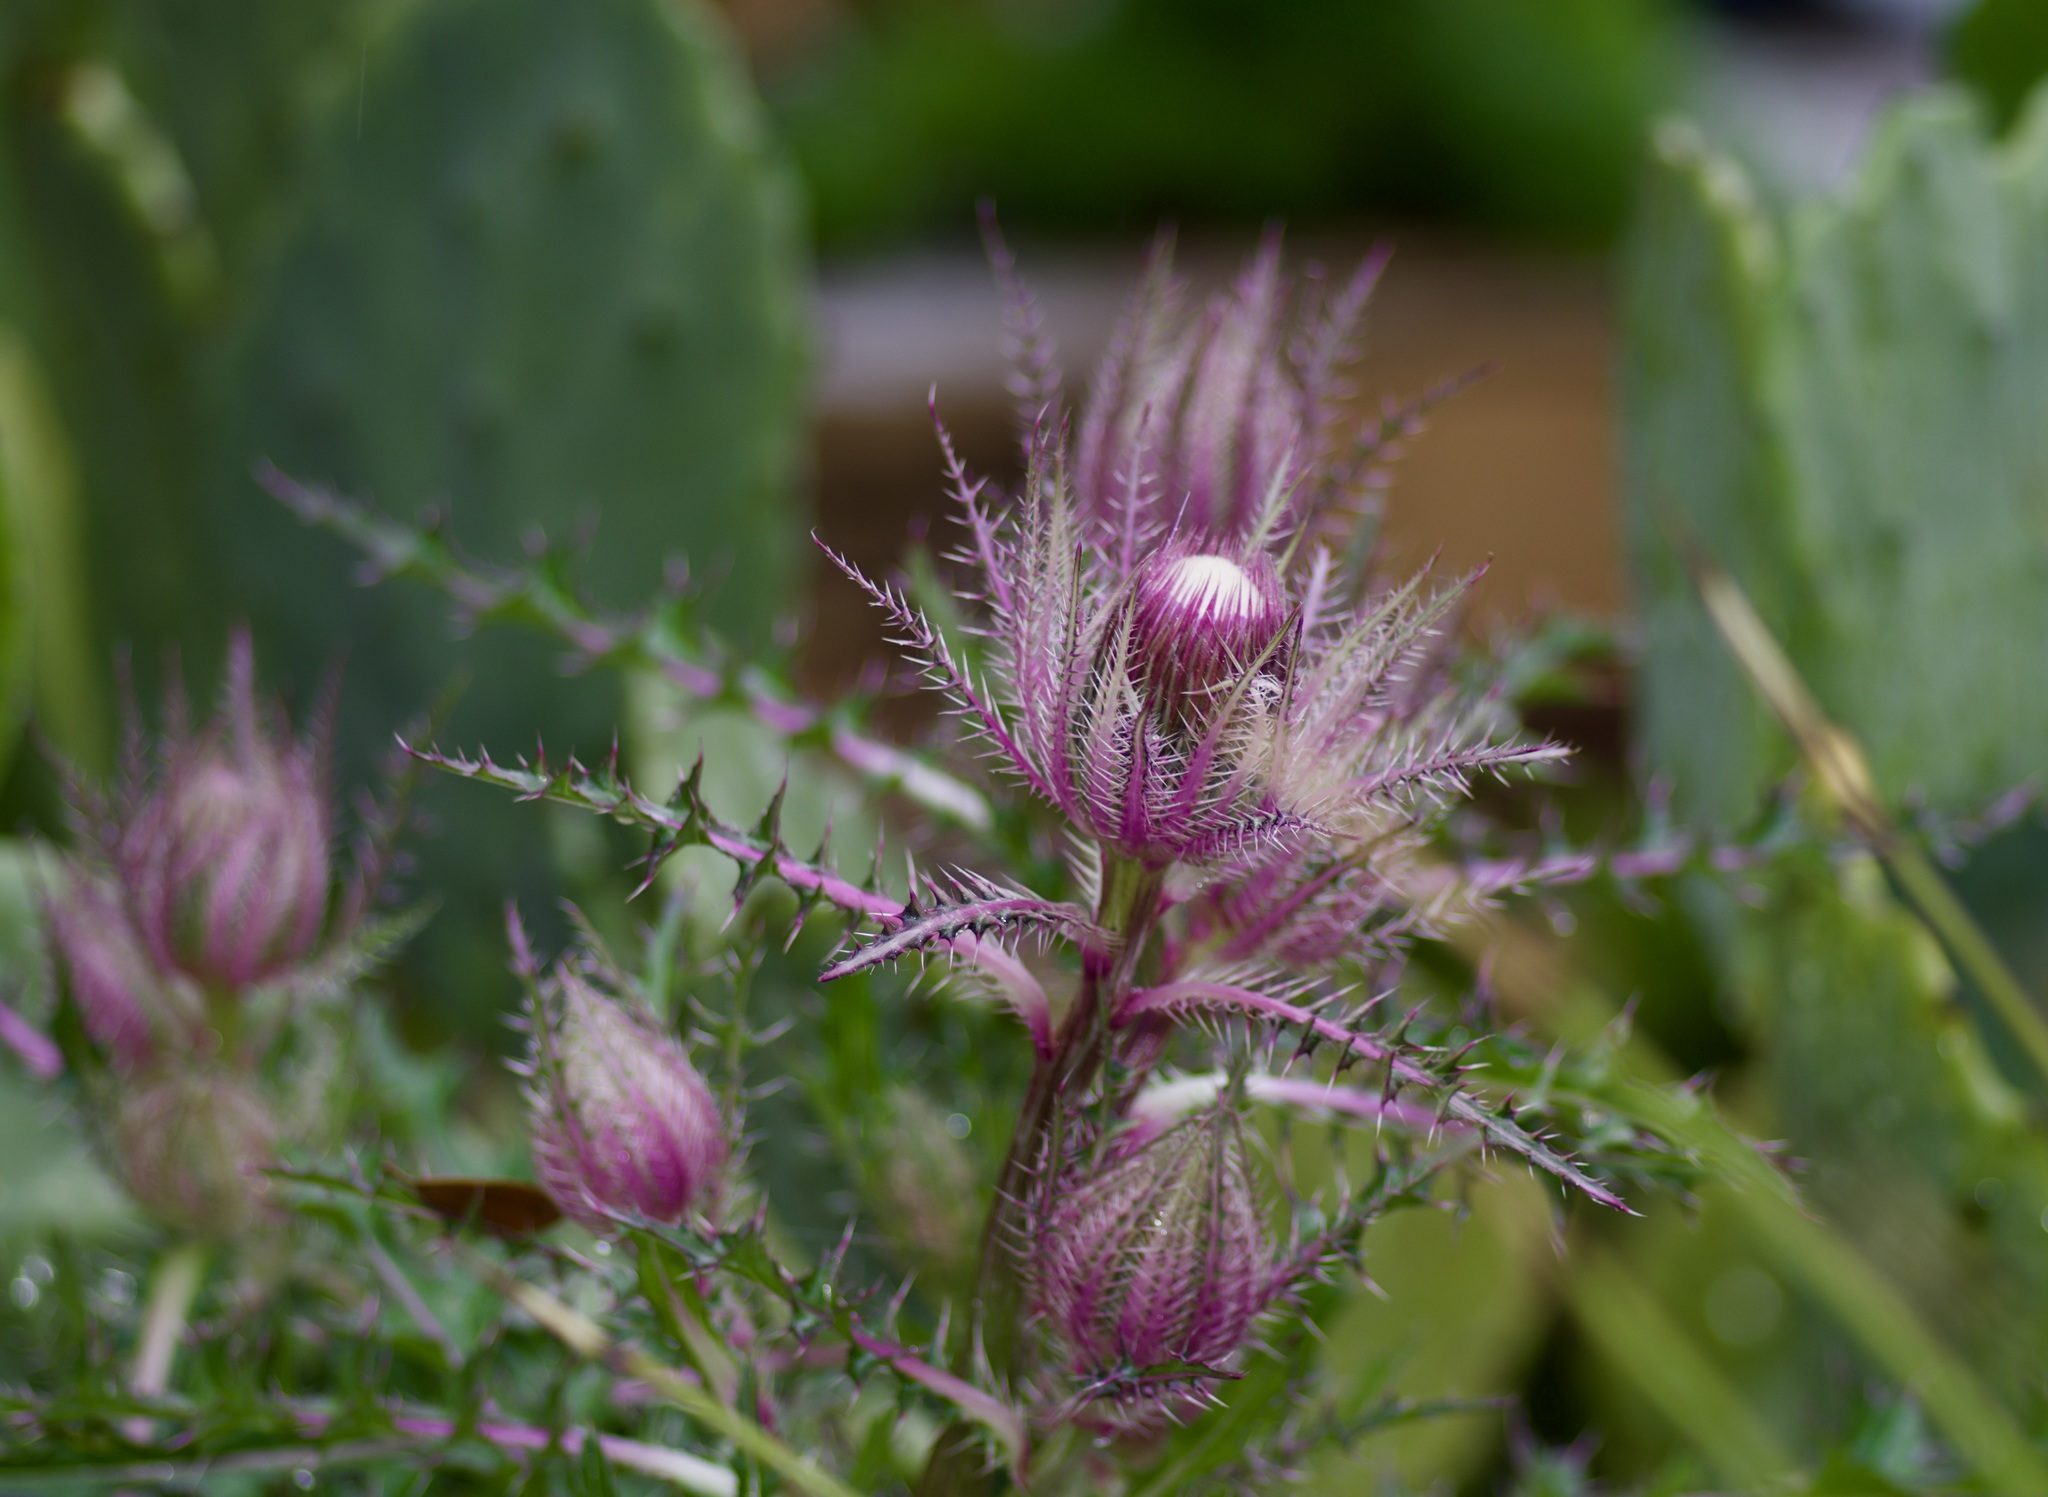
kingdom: Plantae
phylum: Tracheophyta
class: Magnoliopsida
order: Asterales
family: Asteraceae
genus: Cirsium
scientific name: Cirsium horridulum
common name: Bristly thistle
